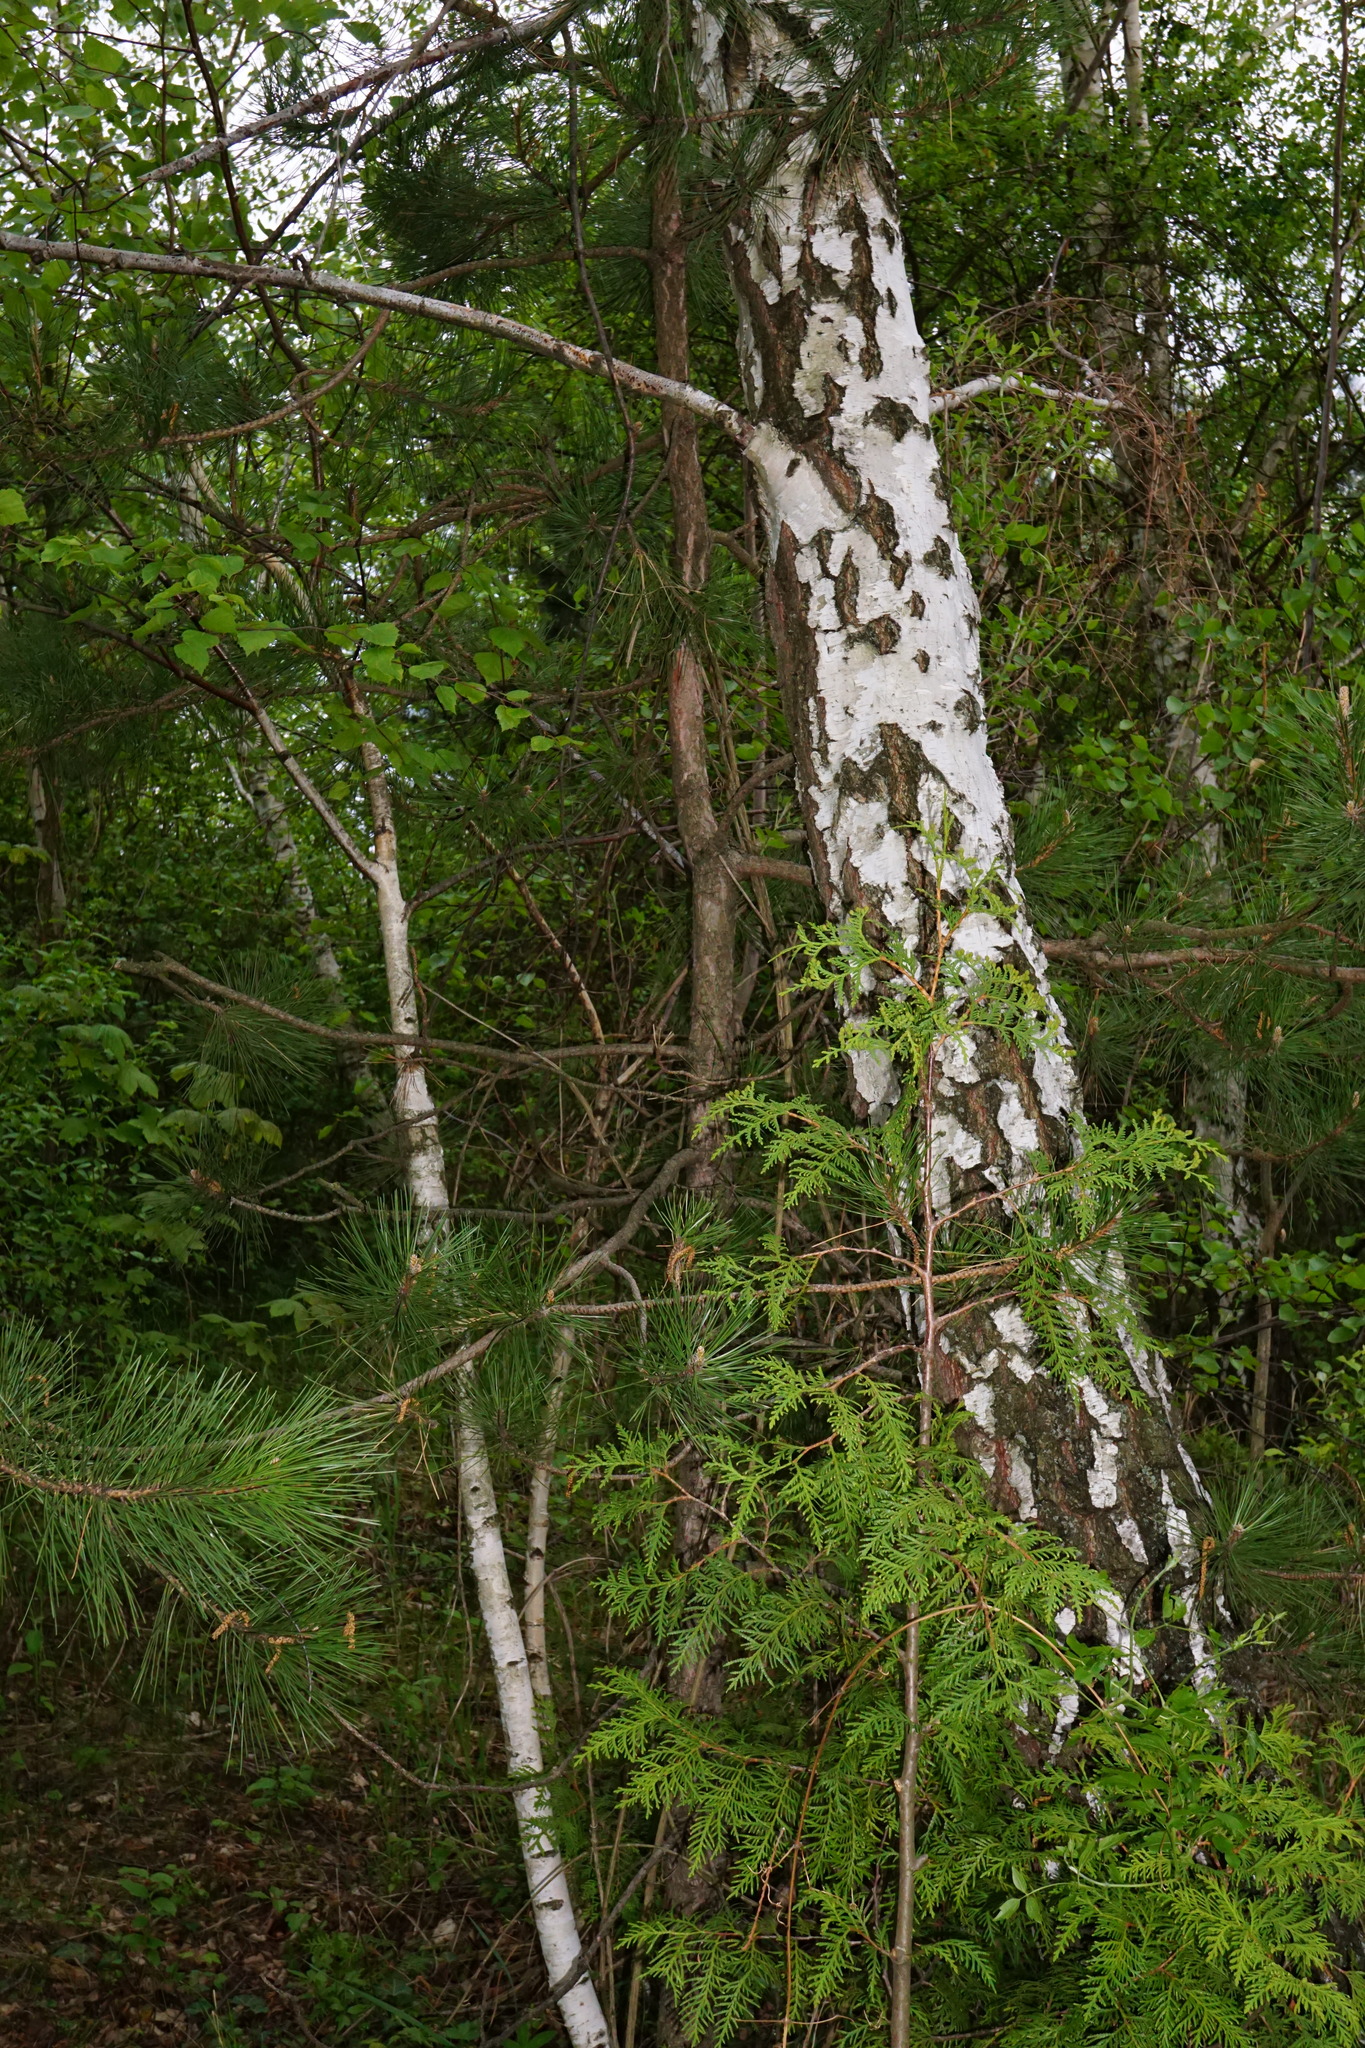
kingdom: Plantae
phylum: Tracheophyta
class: Pinopsida
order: Pinales
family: Pinaceae
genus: Pinus
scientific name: Pinus nigra
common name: Austrian pine
